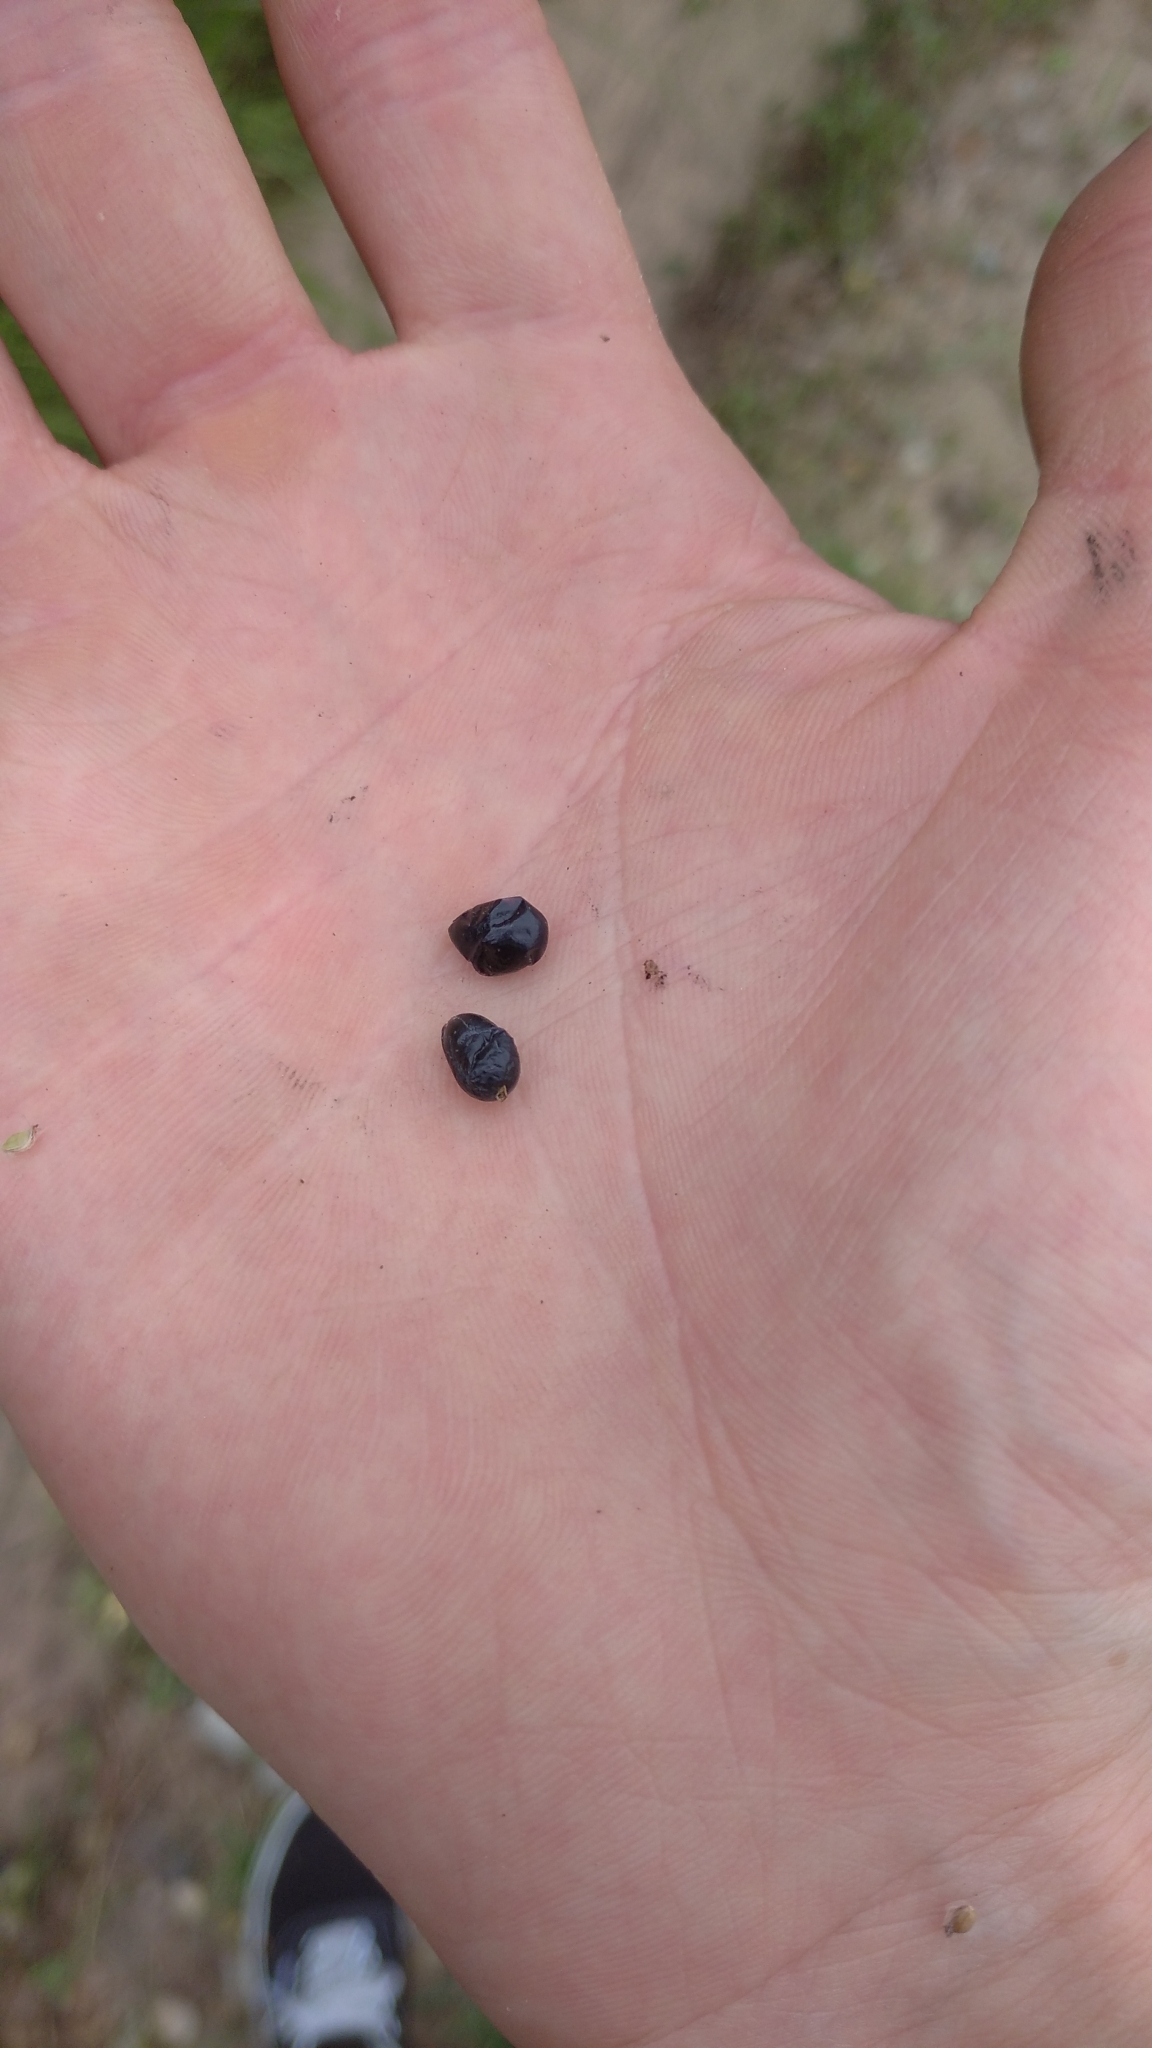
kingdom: Plantae
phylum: Tracheophyta
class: Magnoliopsida
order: Malpighiales
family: Passifloraceae
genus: Passiflora
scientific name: Passiflora misera
